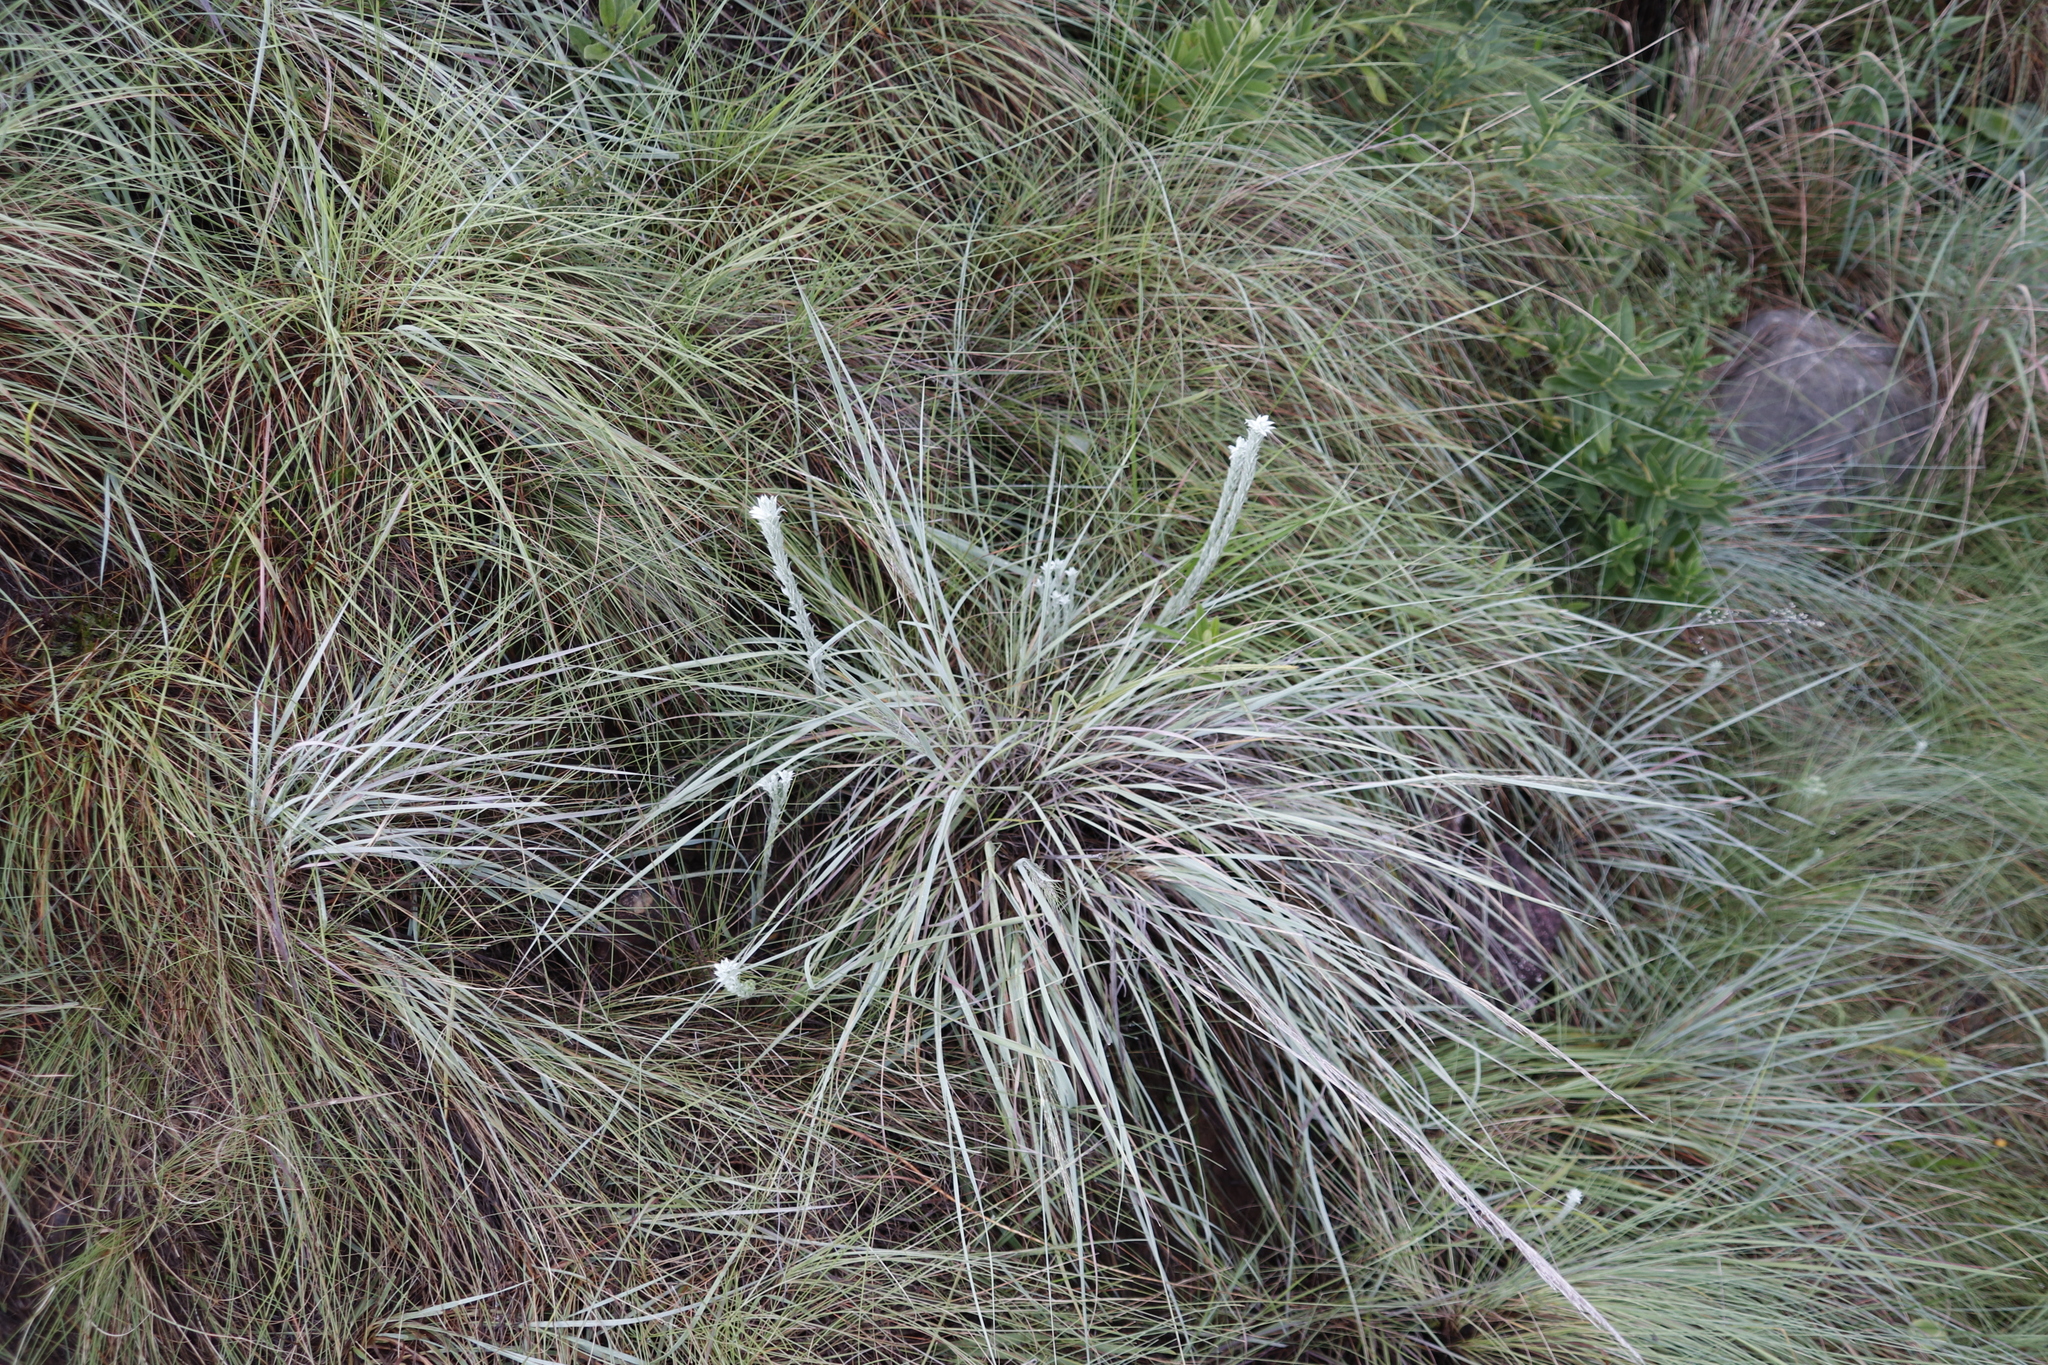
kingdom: Plantae
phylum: Tracheophyta
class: Magnoliopsida
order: Asterales
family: Asteraceae
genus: Helichrysum
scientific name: Helichrysum glomeratum
